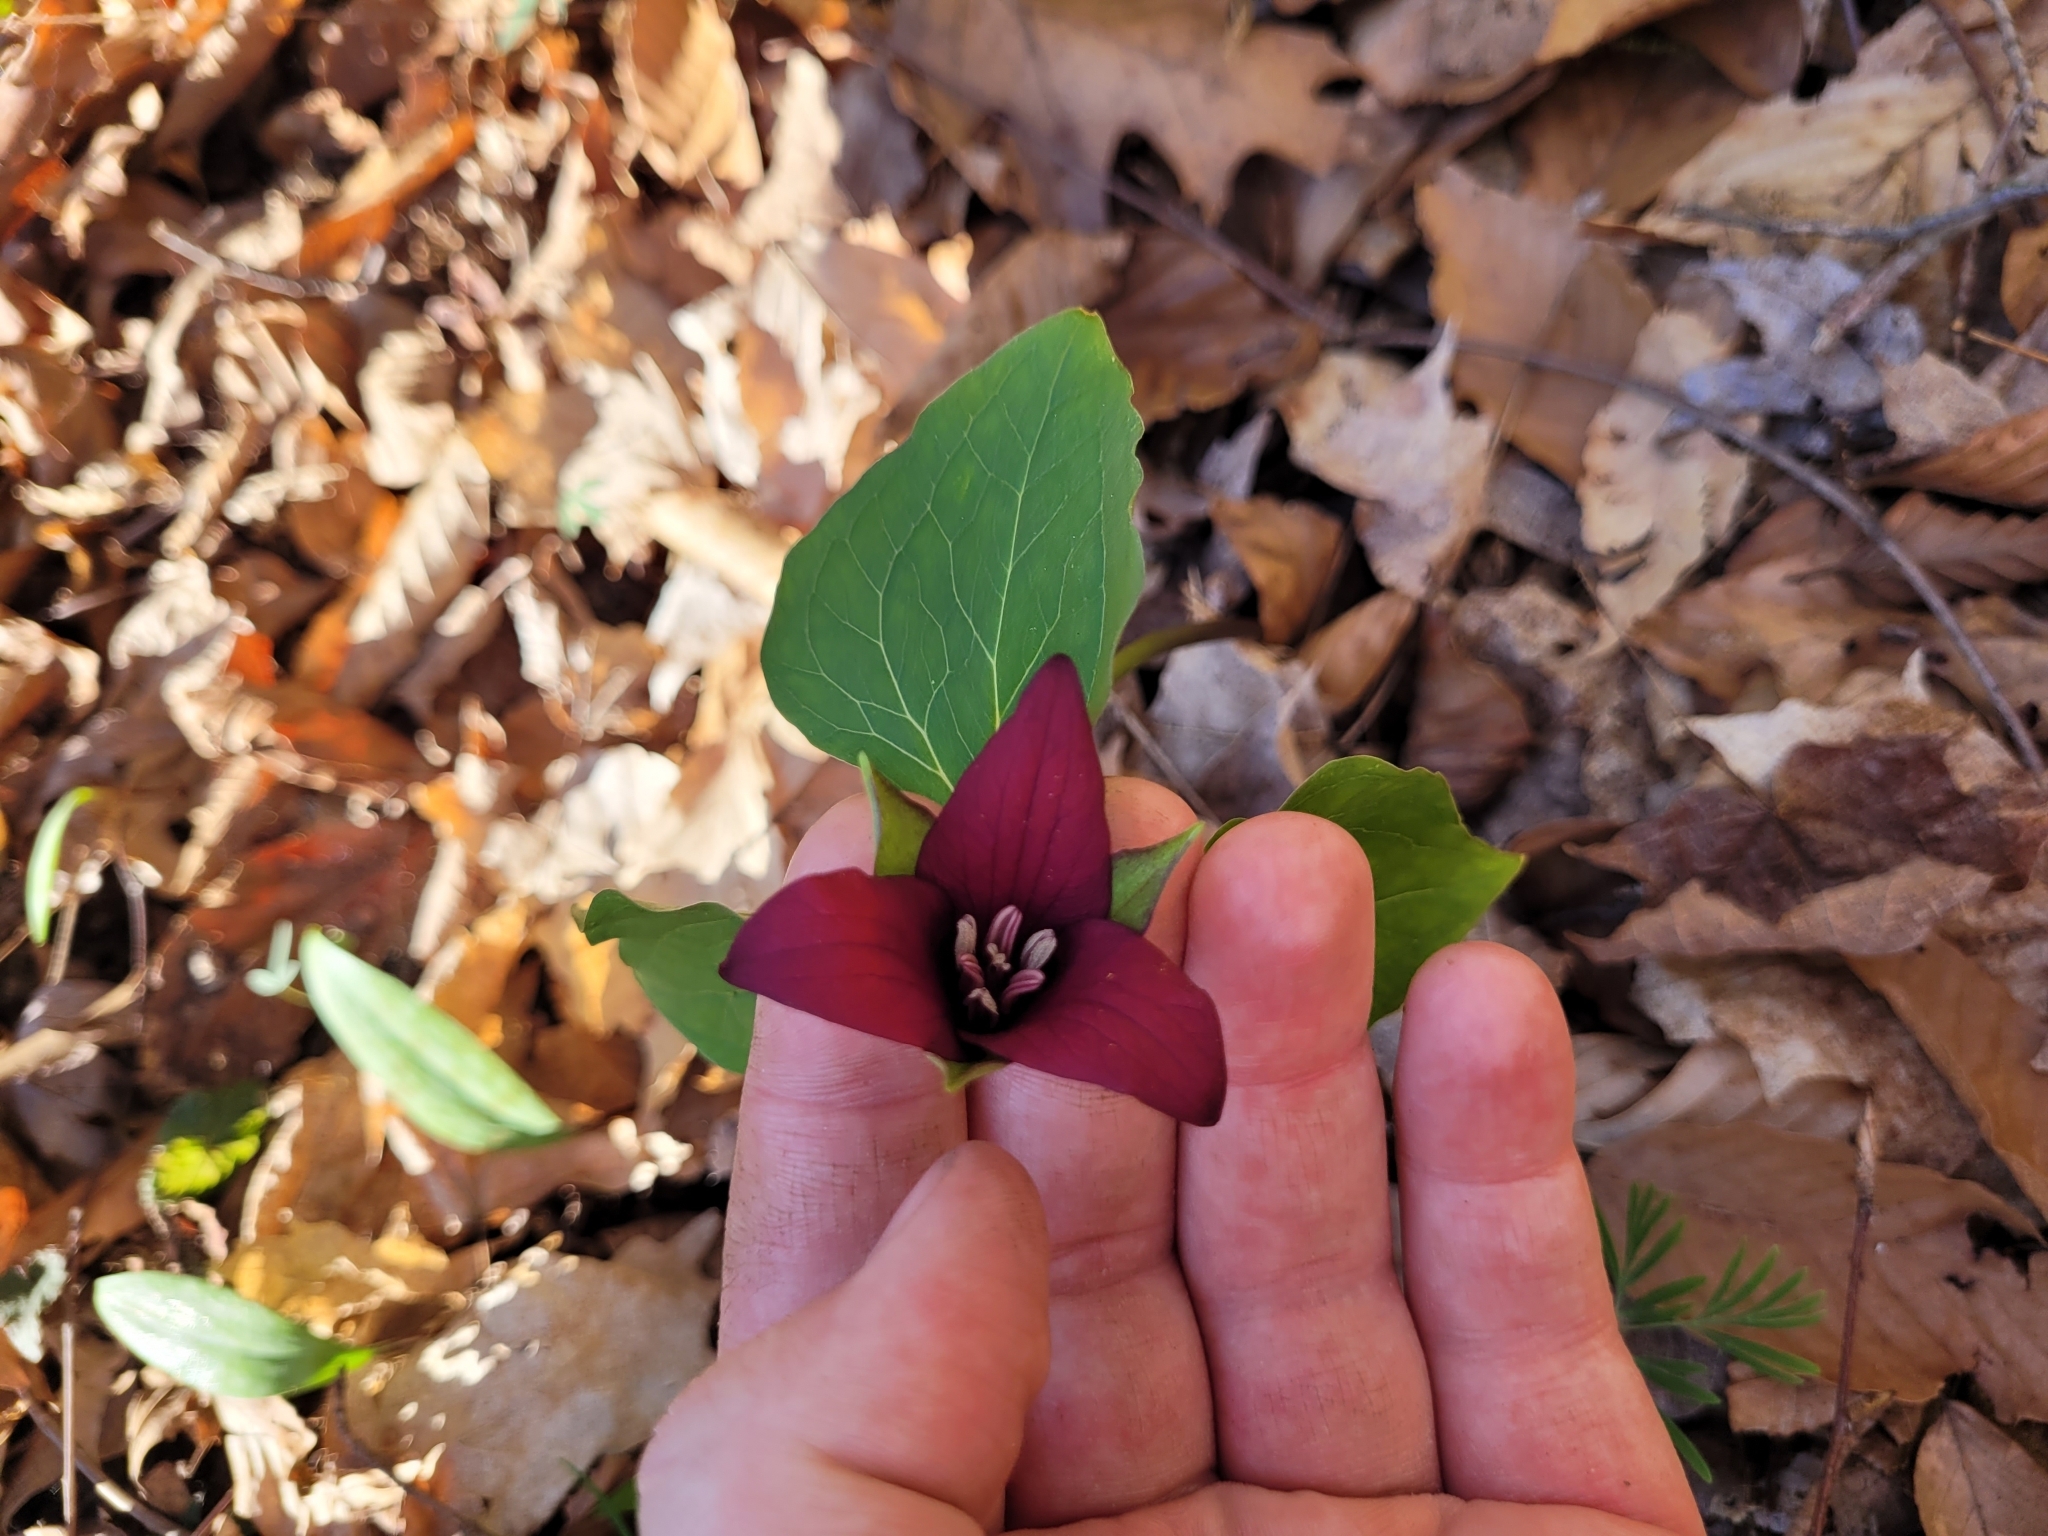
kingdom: Plantae
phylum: Tracheophyta
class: Liliopsida
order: Liliales
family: Melanthiaceae
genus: Trillium
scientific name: Trillium erectum
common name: Purple trillium
